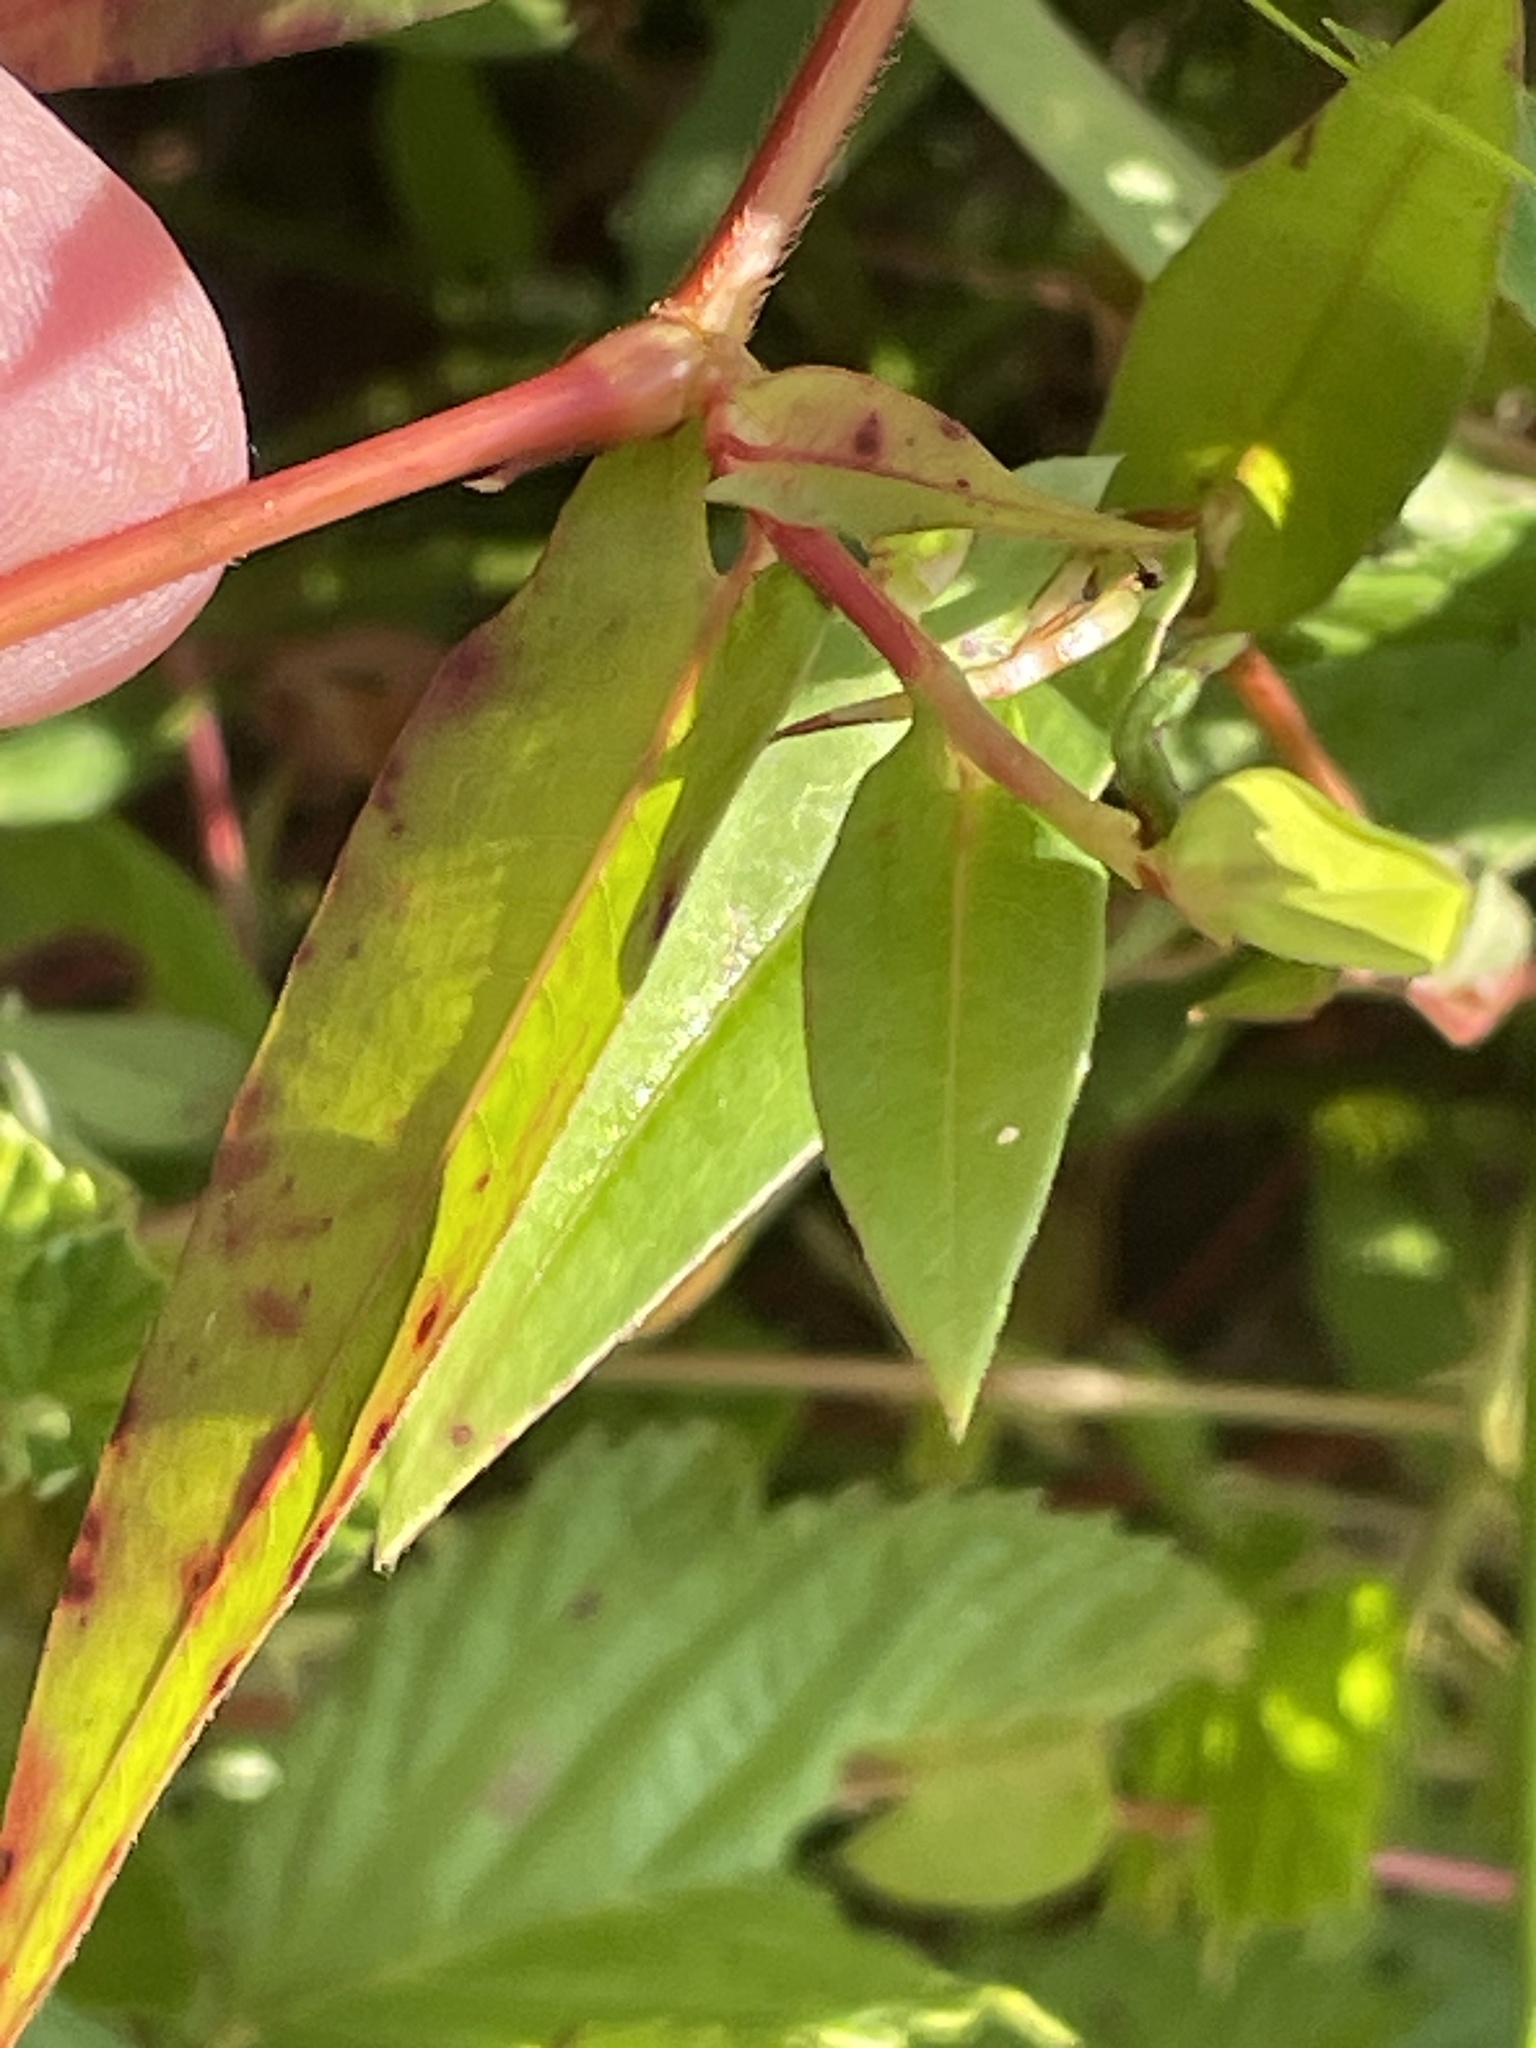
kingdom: Plantae
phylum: Tracheophyta
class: Magnoliopsida
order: Caryophyllales
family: Polygonaceae
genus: Persicaria
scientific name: Persicaria sagittata
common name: American tearthumb
